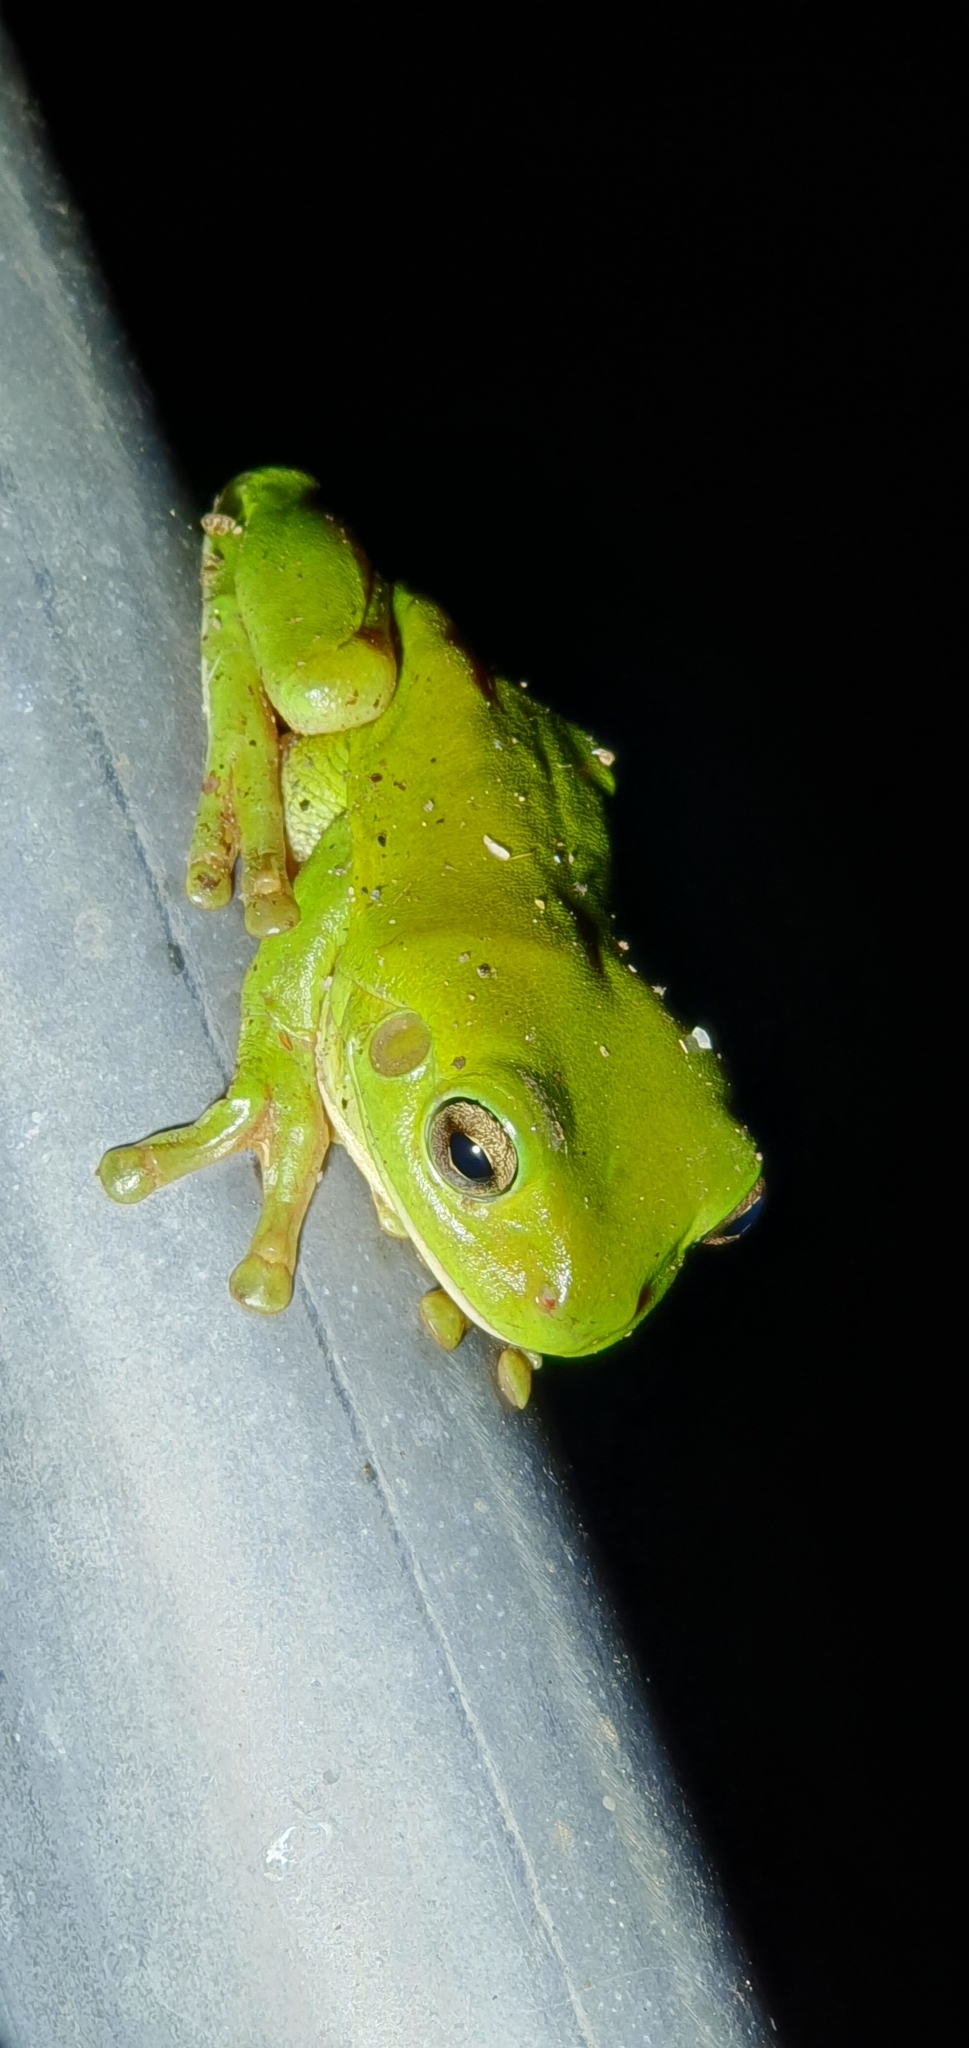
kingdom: Animalia
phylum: Chordata
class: Amphibia
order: Anura
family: Pelodryadidae
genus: Ranoidea
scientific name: Ranoidea caerulea
